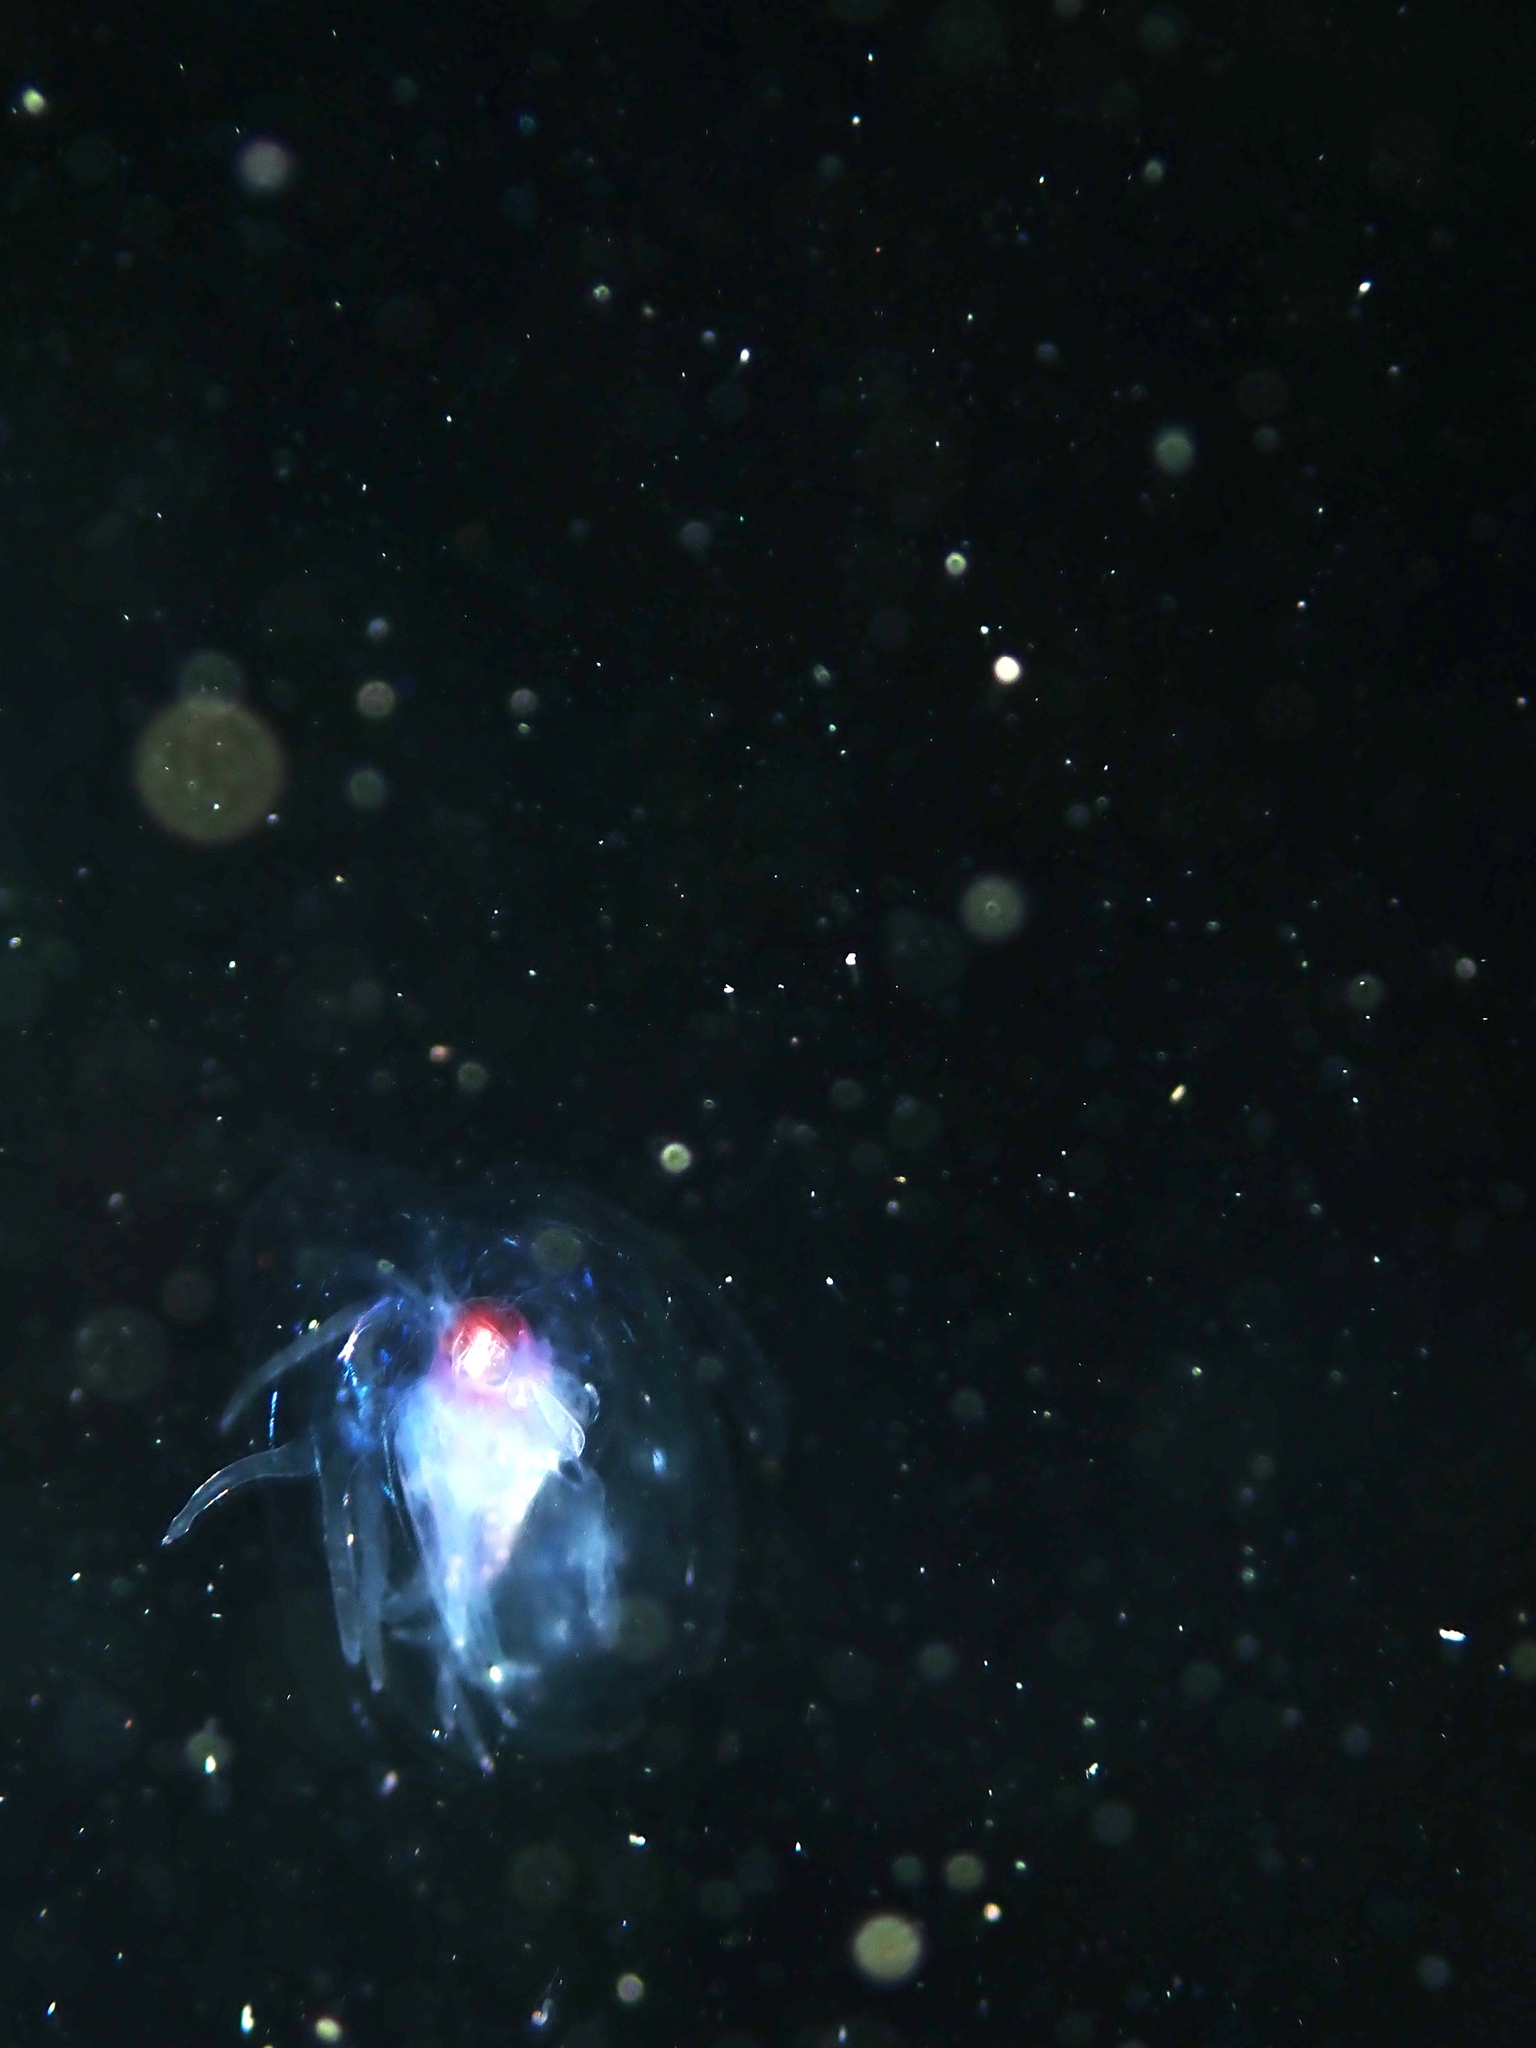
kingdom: Animalia
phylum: Cnidaria
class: Hydrozoa
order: Siphonophorae
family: Agalmatidae
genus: Athorybia
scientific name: Athorybia rosacea
